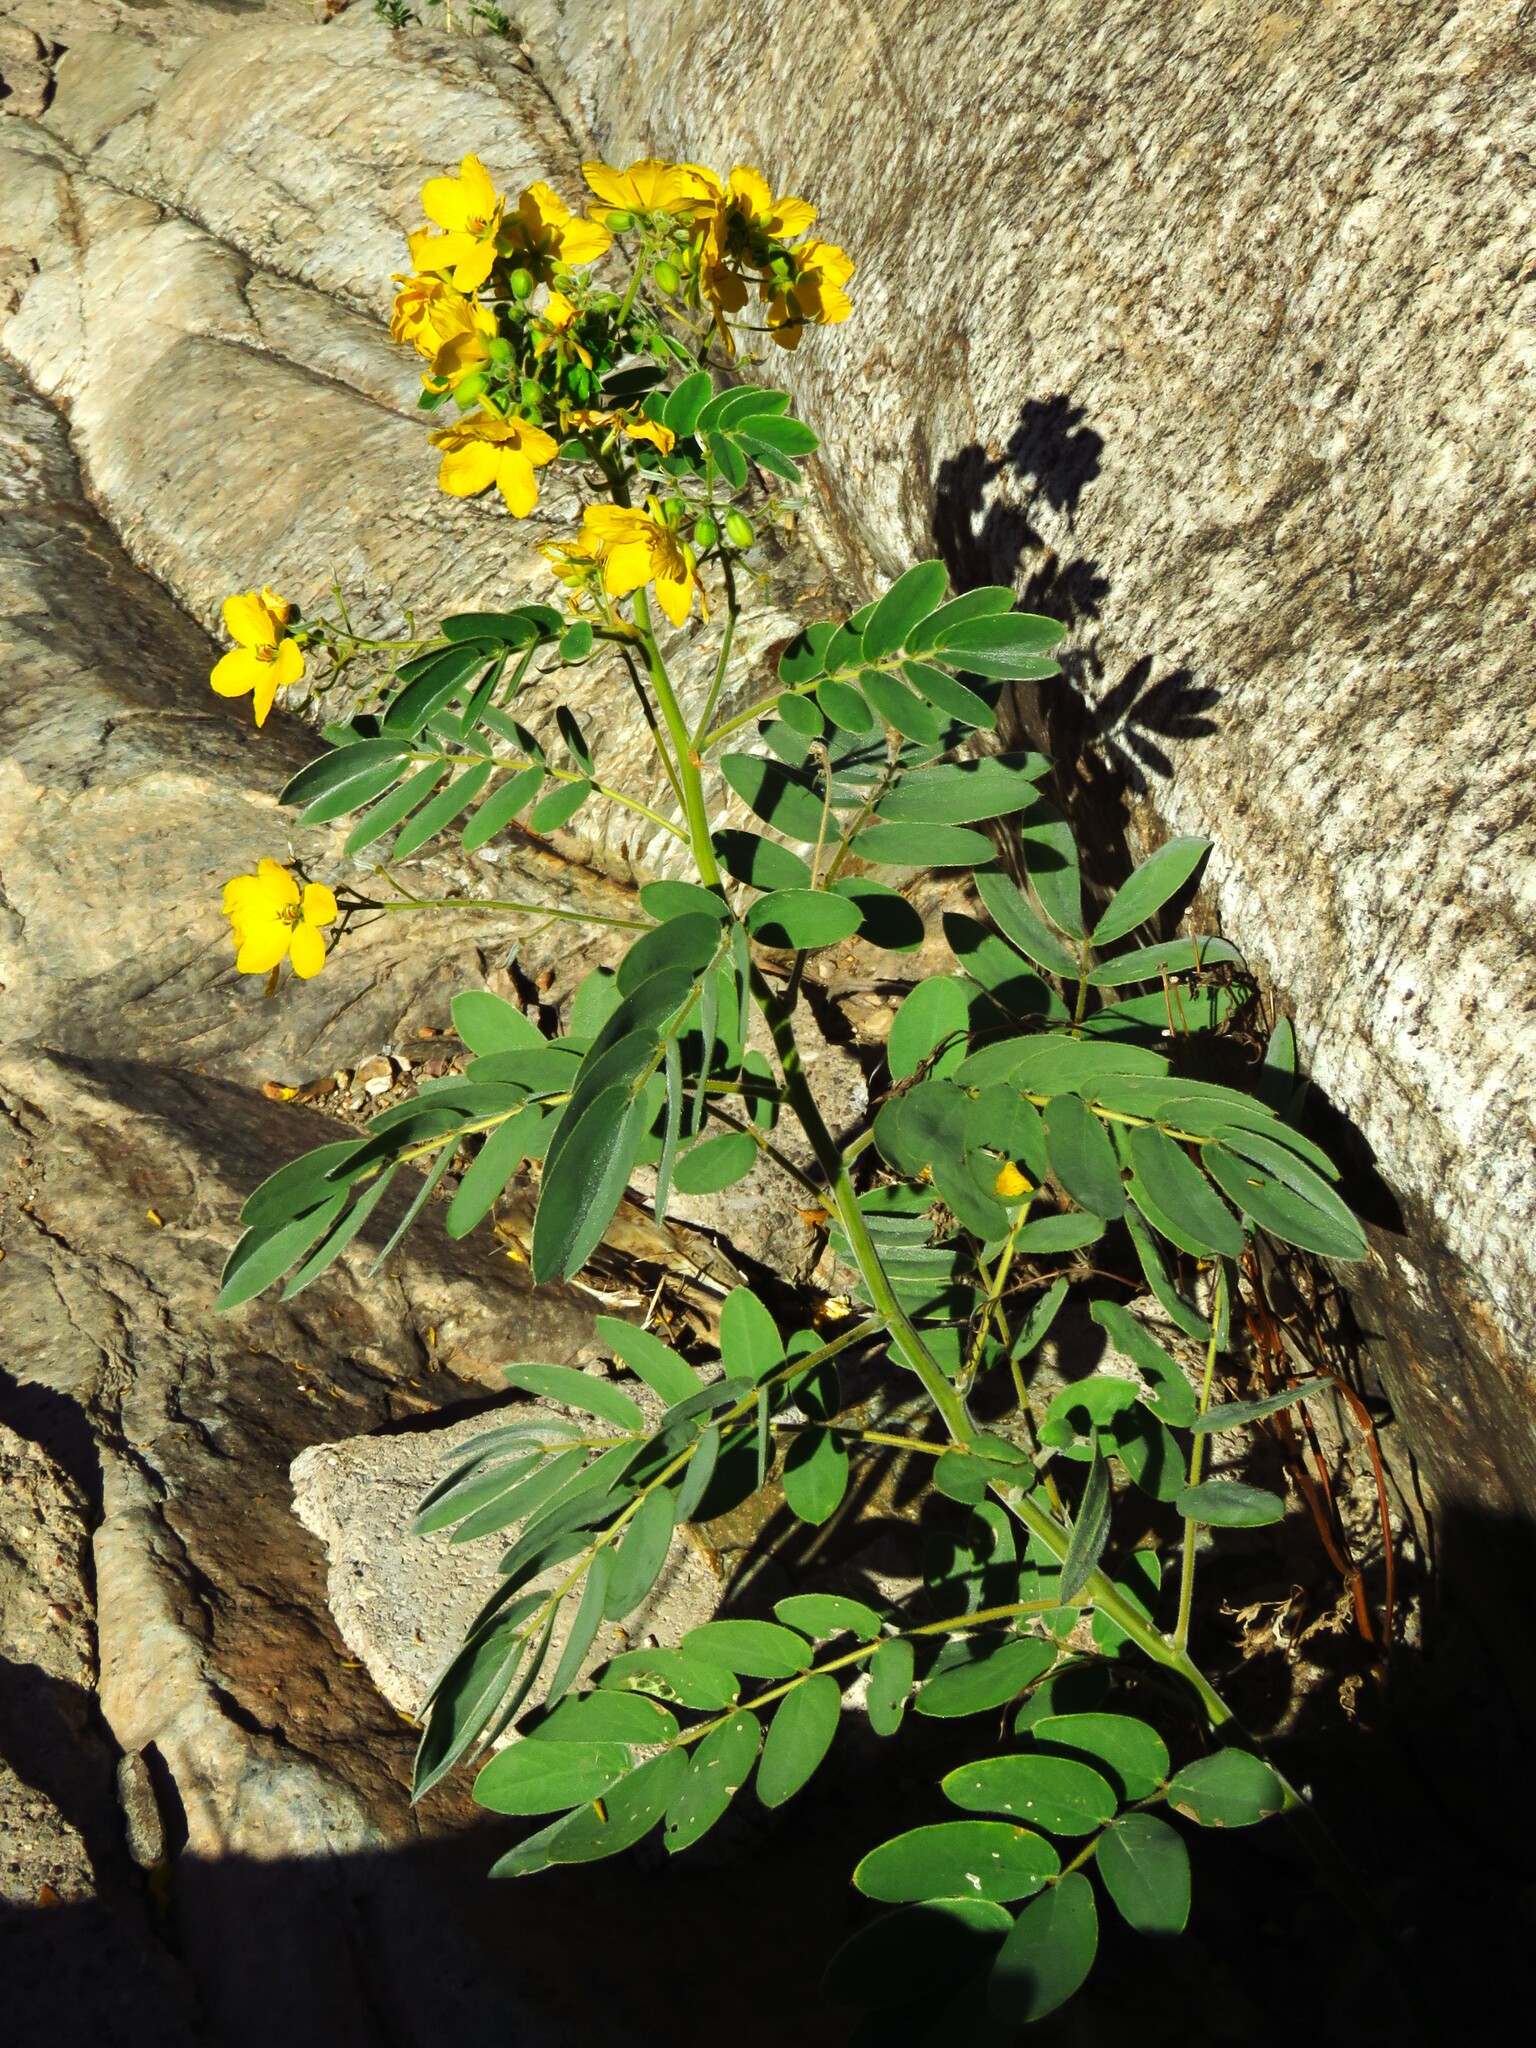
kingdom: Plantae
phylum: Tracheophyta
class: Magnoliopsida
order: Fabales
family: Fabaceae
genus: Senna
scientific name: Senna lindheimeriana
